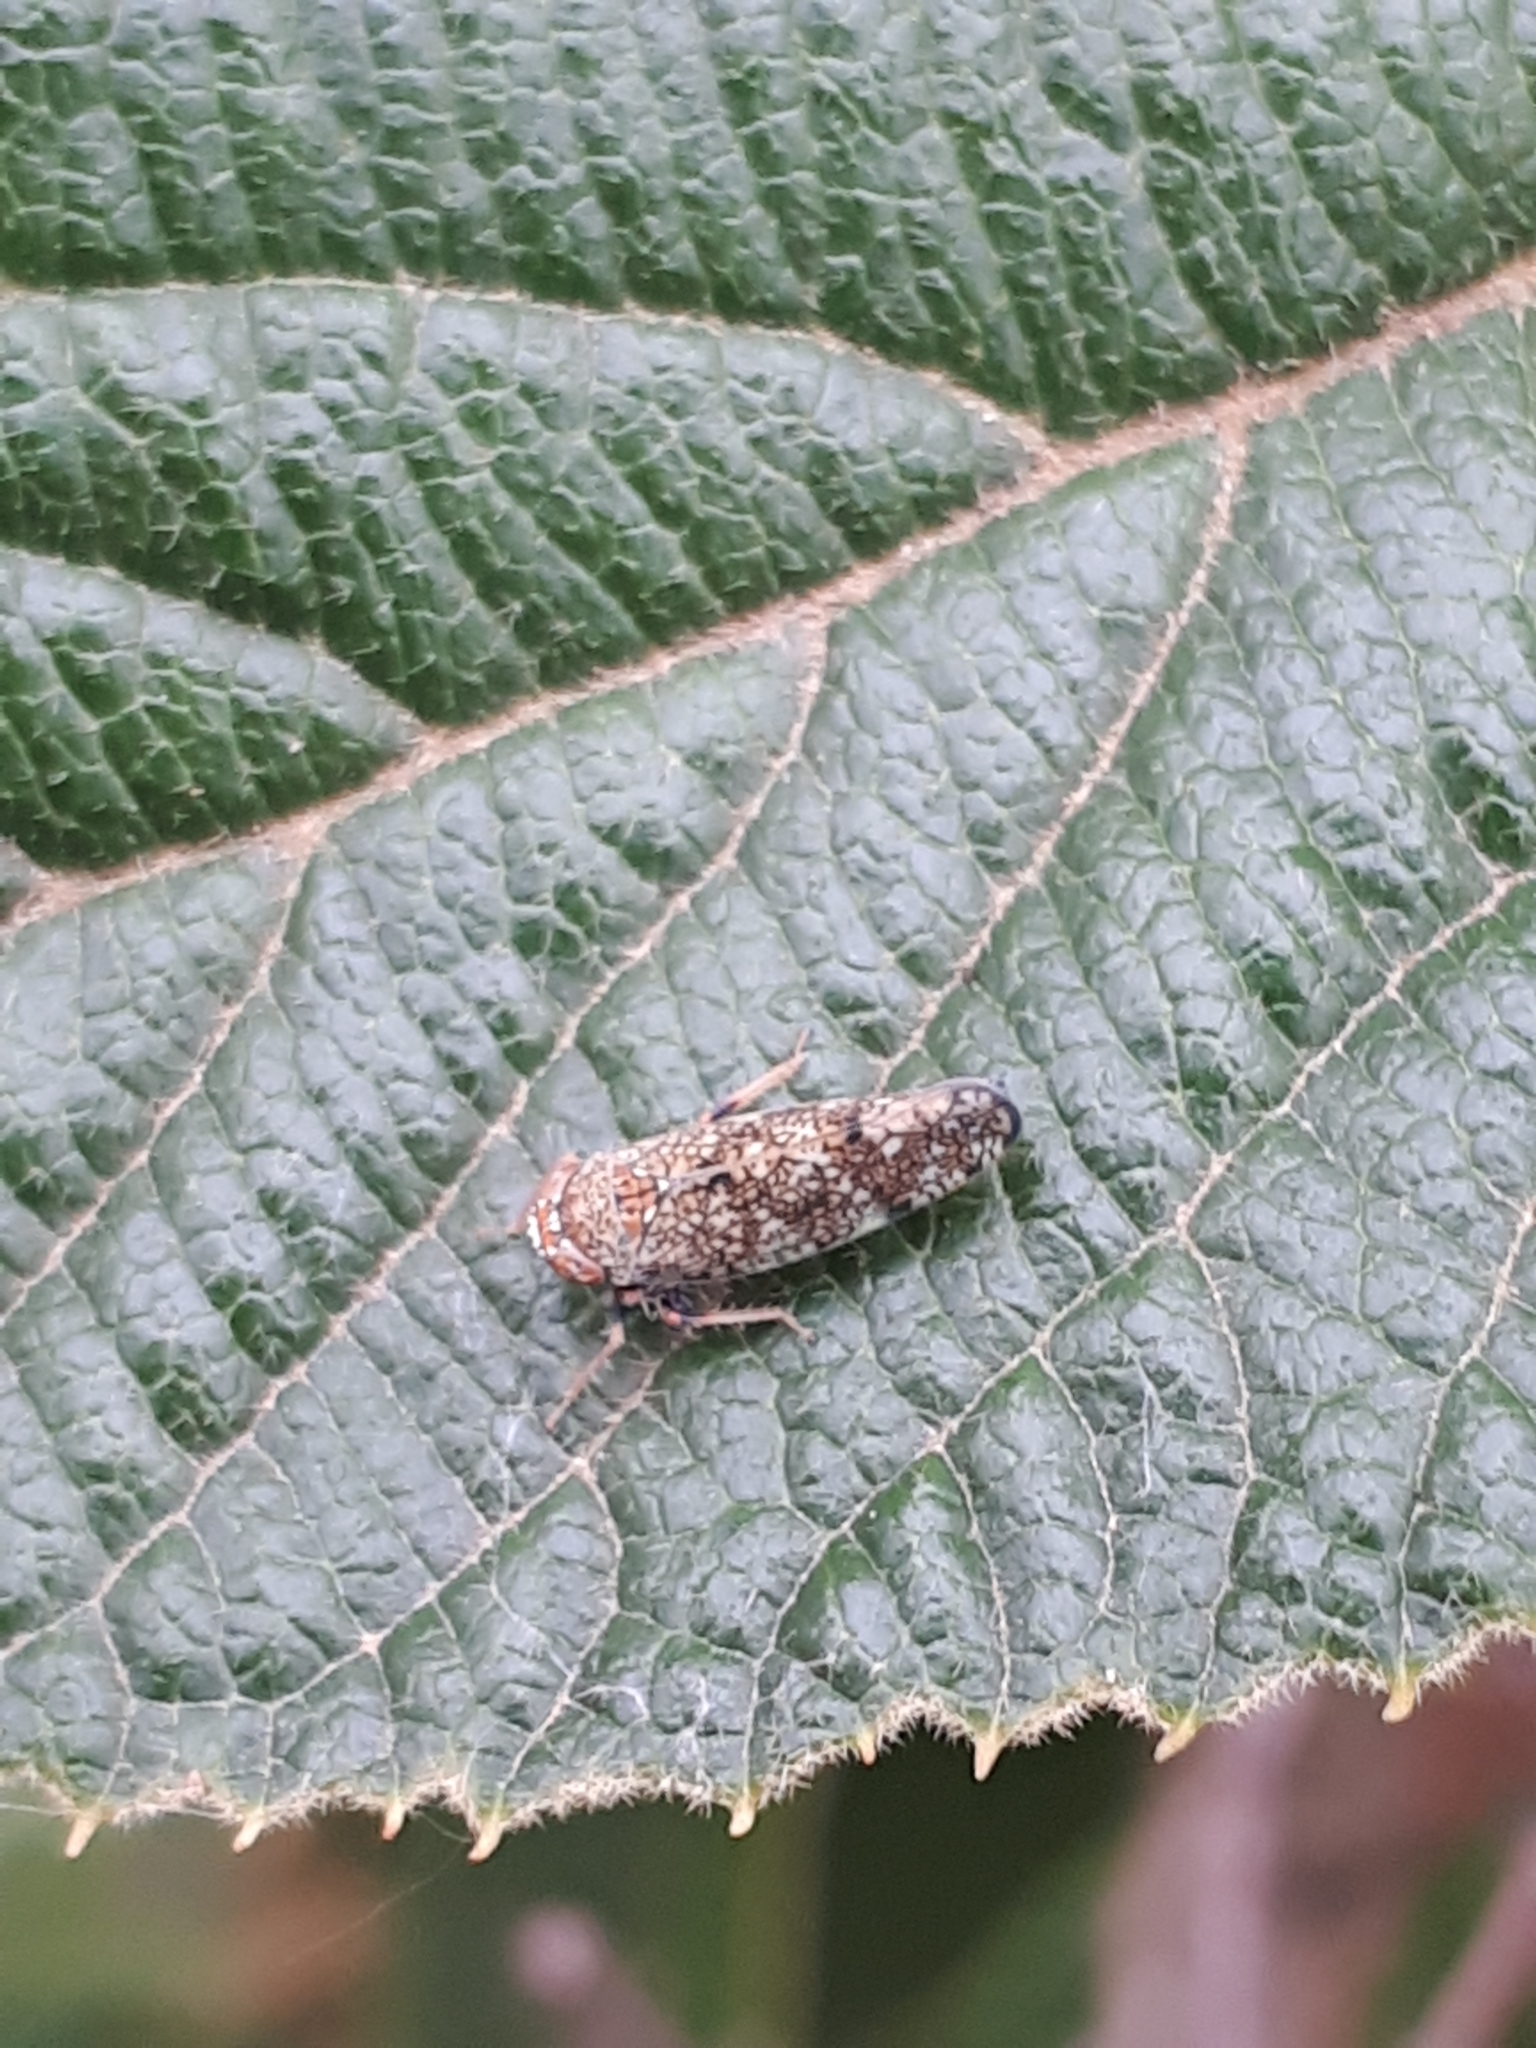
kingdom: Animalia
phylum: Arthropoda
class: Insecta
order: Hemiptera
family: Cicadellidae
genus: Orientus
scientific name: Orientus ishidae
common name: Japanese leafhopper
